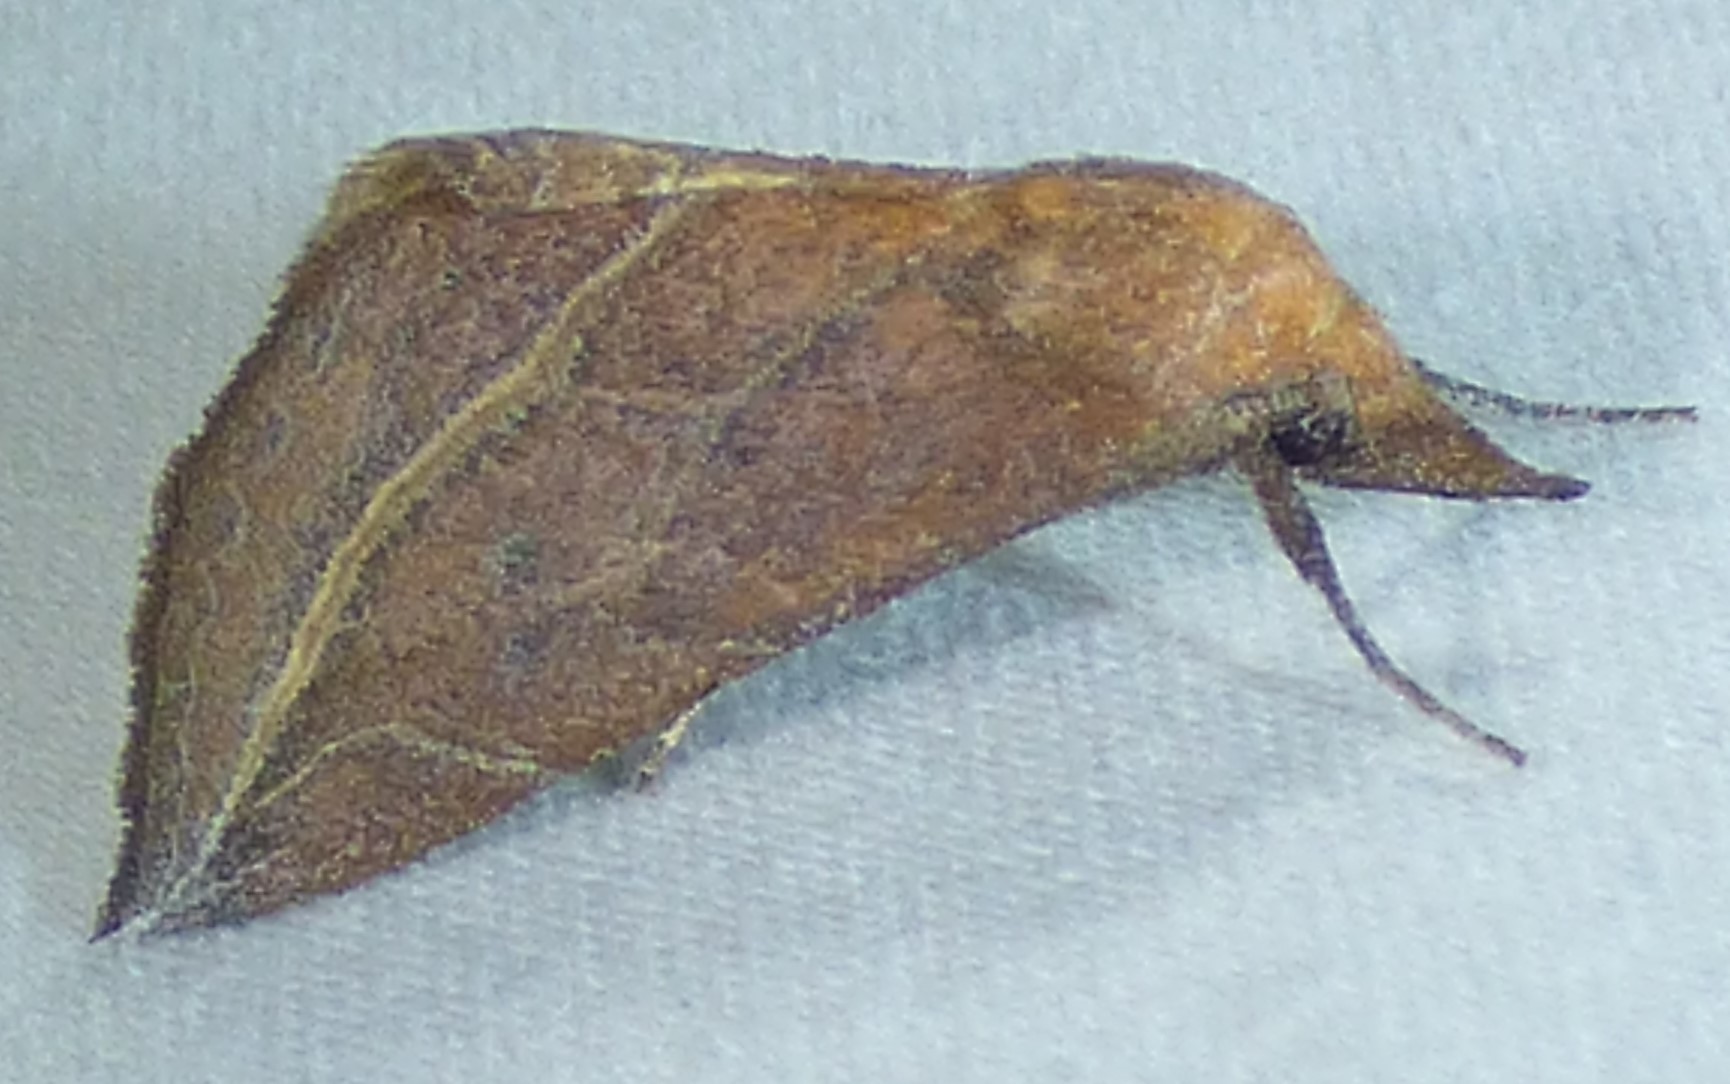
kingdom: Animalia
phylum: Arthropoda
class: Insecta
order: Lepidoptera
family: Erebidae
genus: Phyprosopus
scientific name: Phyprosopus callitrichoides
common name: Curved-lined owlet
